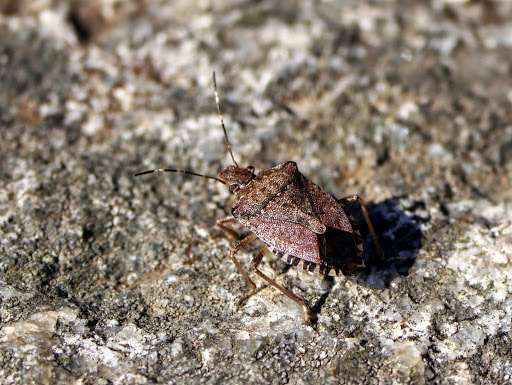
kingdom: Animalia
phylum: Arthropoda
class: Insecta
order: Hemiptera
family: Pentatomidae
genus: Halyomorpha
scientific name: Halyomorpha halys
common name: Brown marmorated stink bug
